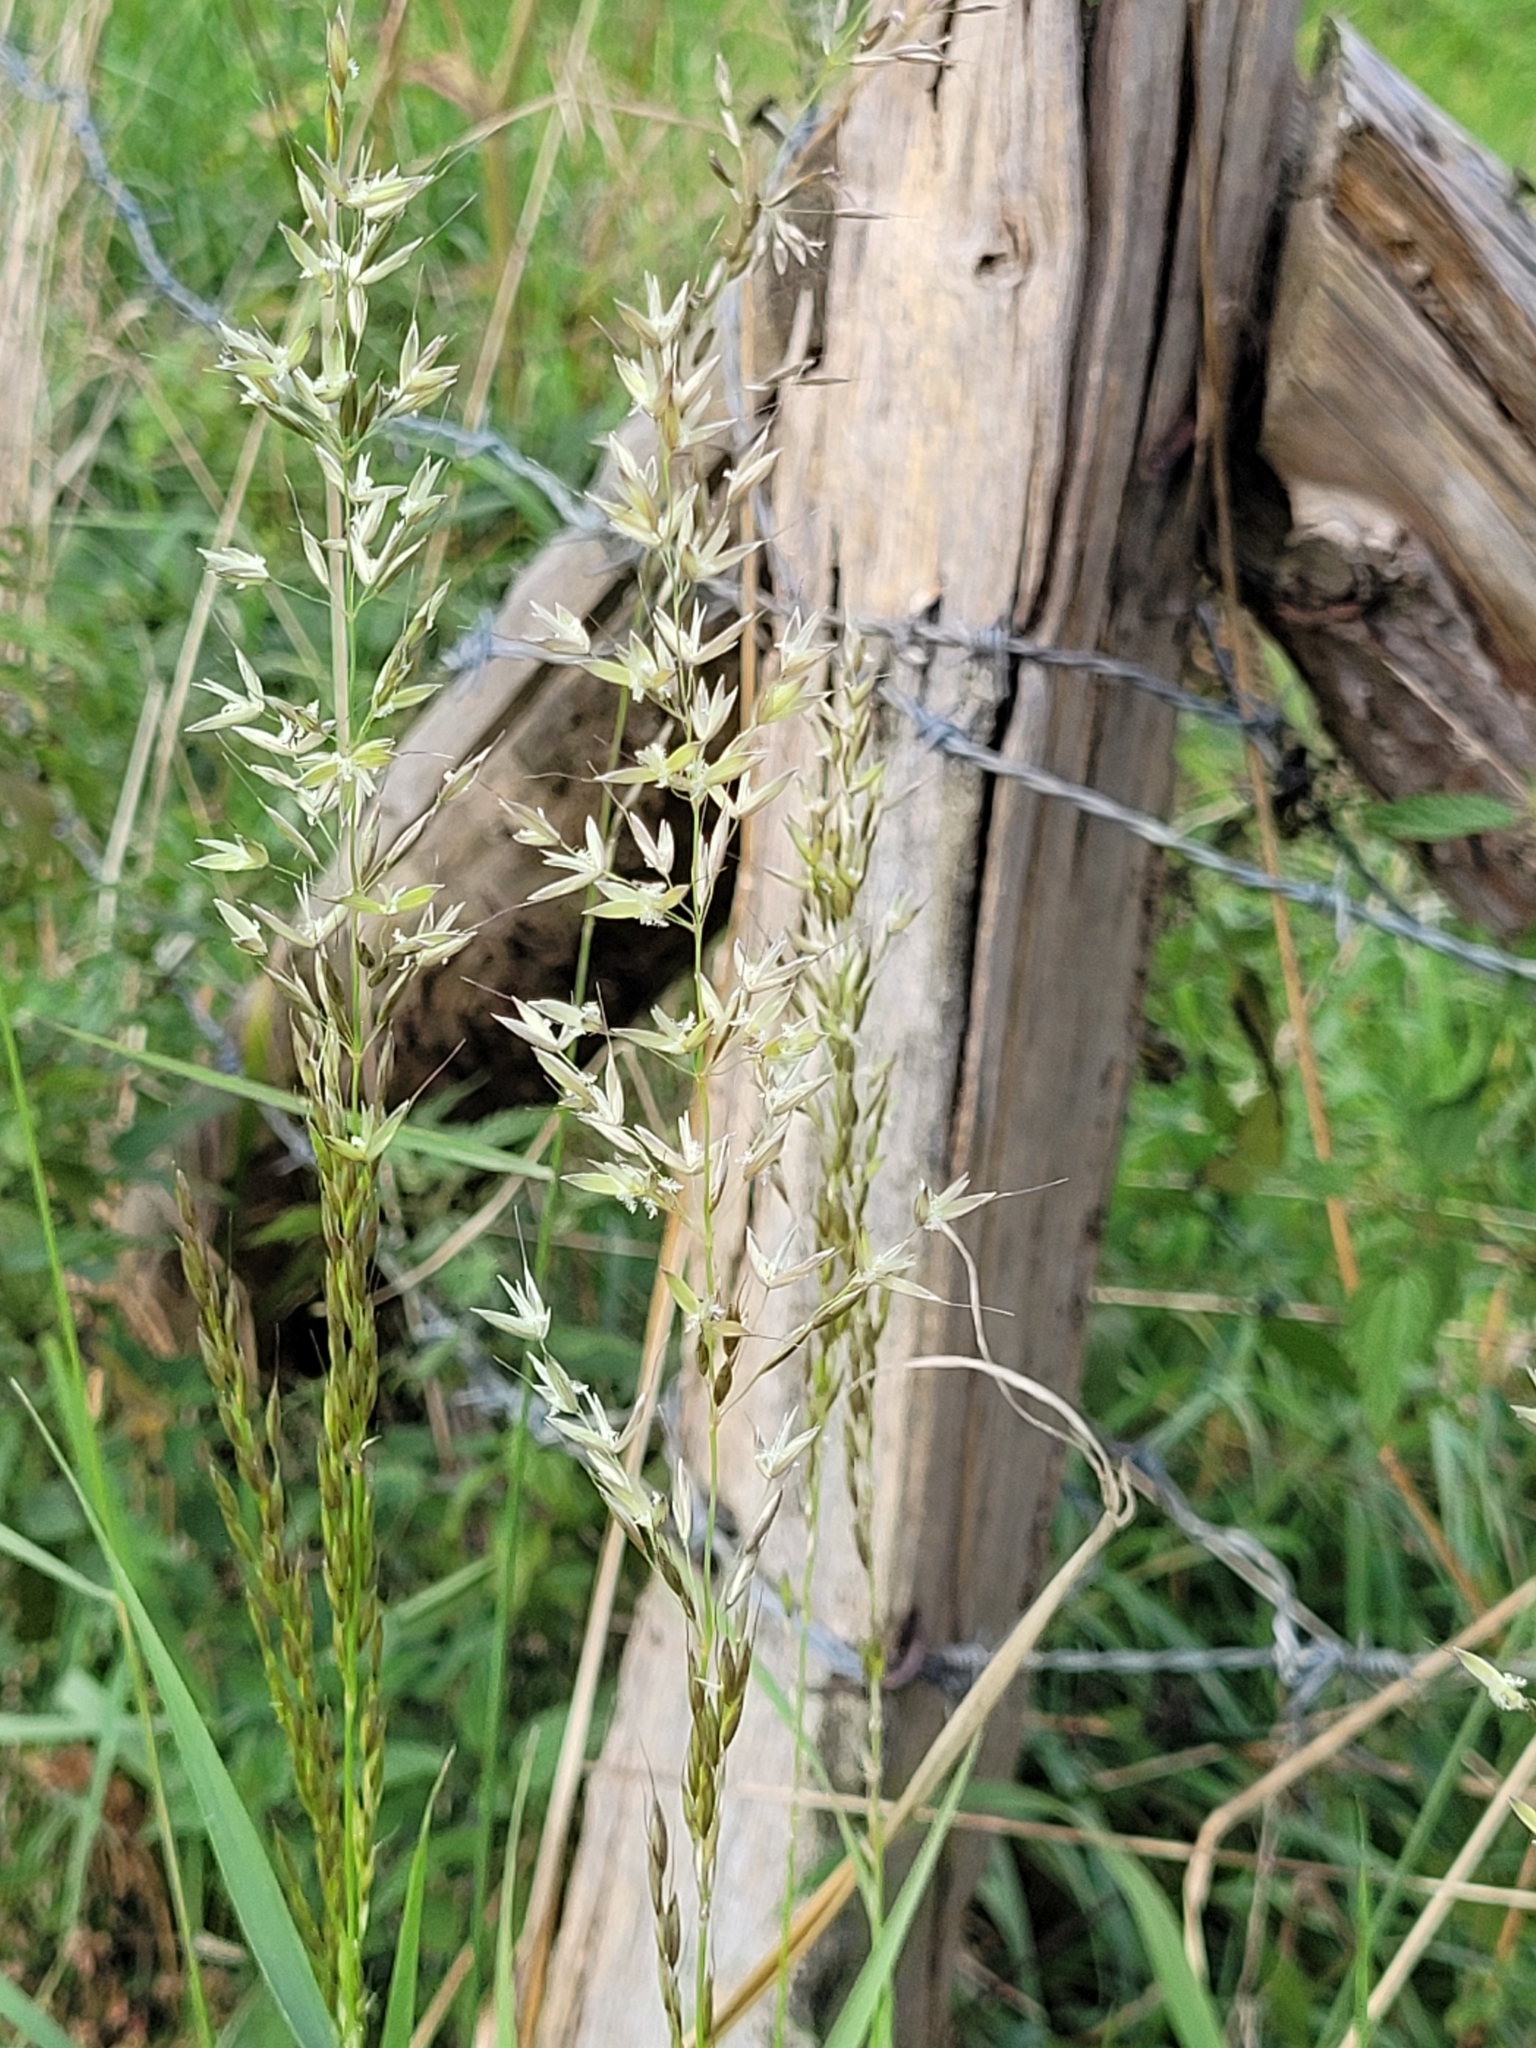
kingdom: Plantae
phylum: Tracheophyta
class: Liliopsida
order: Poales
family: Poaceae
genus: Arrhenatherum
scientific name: Arrhenatherum elatius
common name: Tall oatgrass
